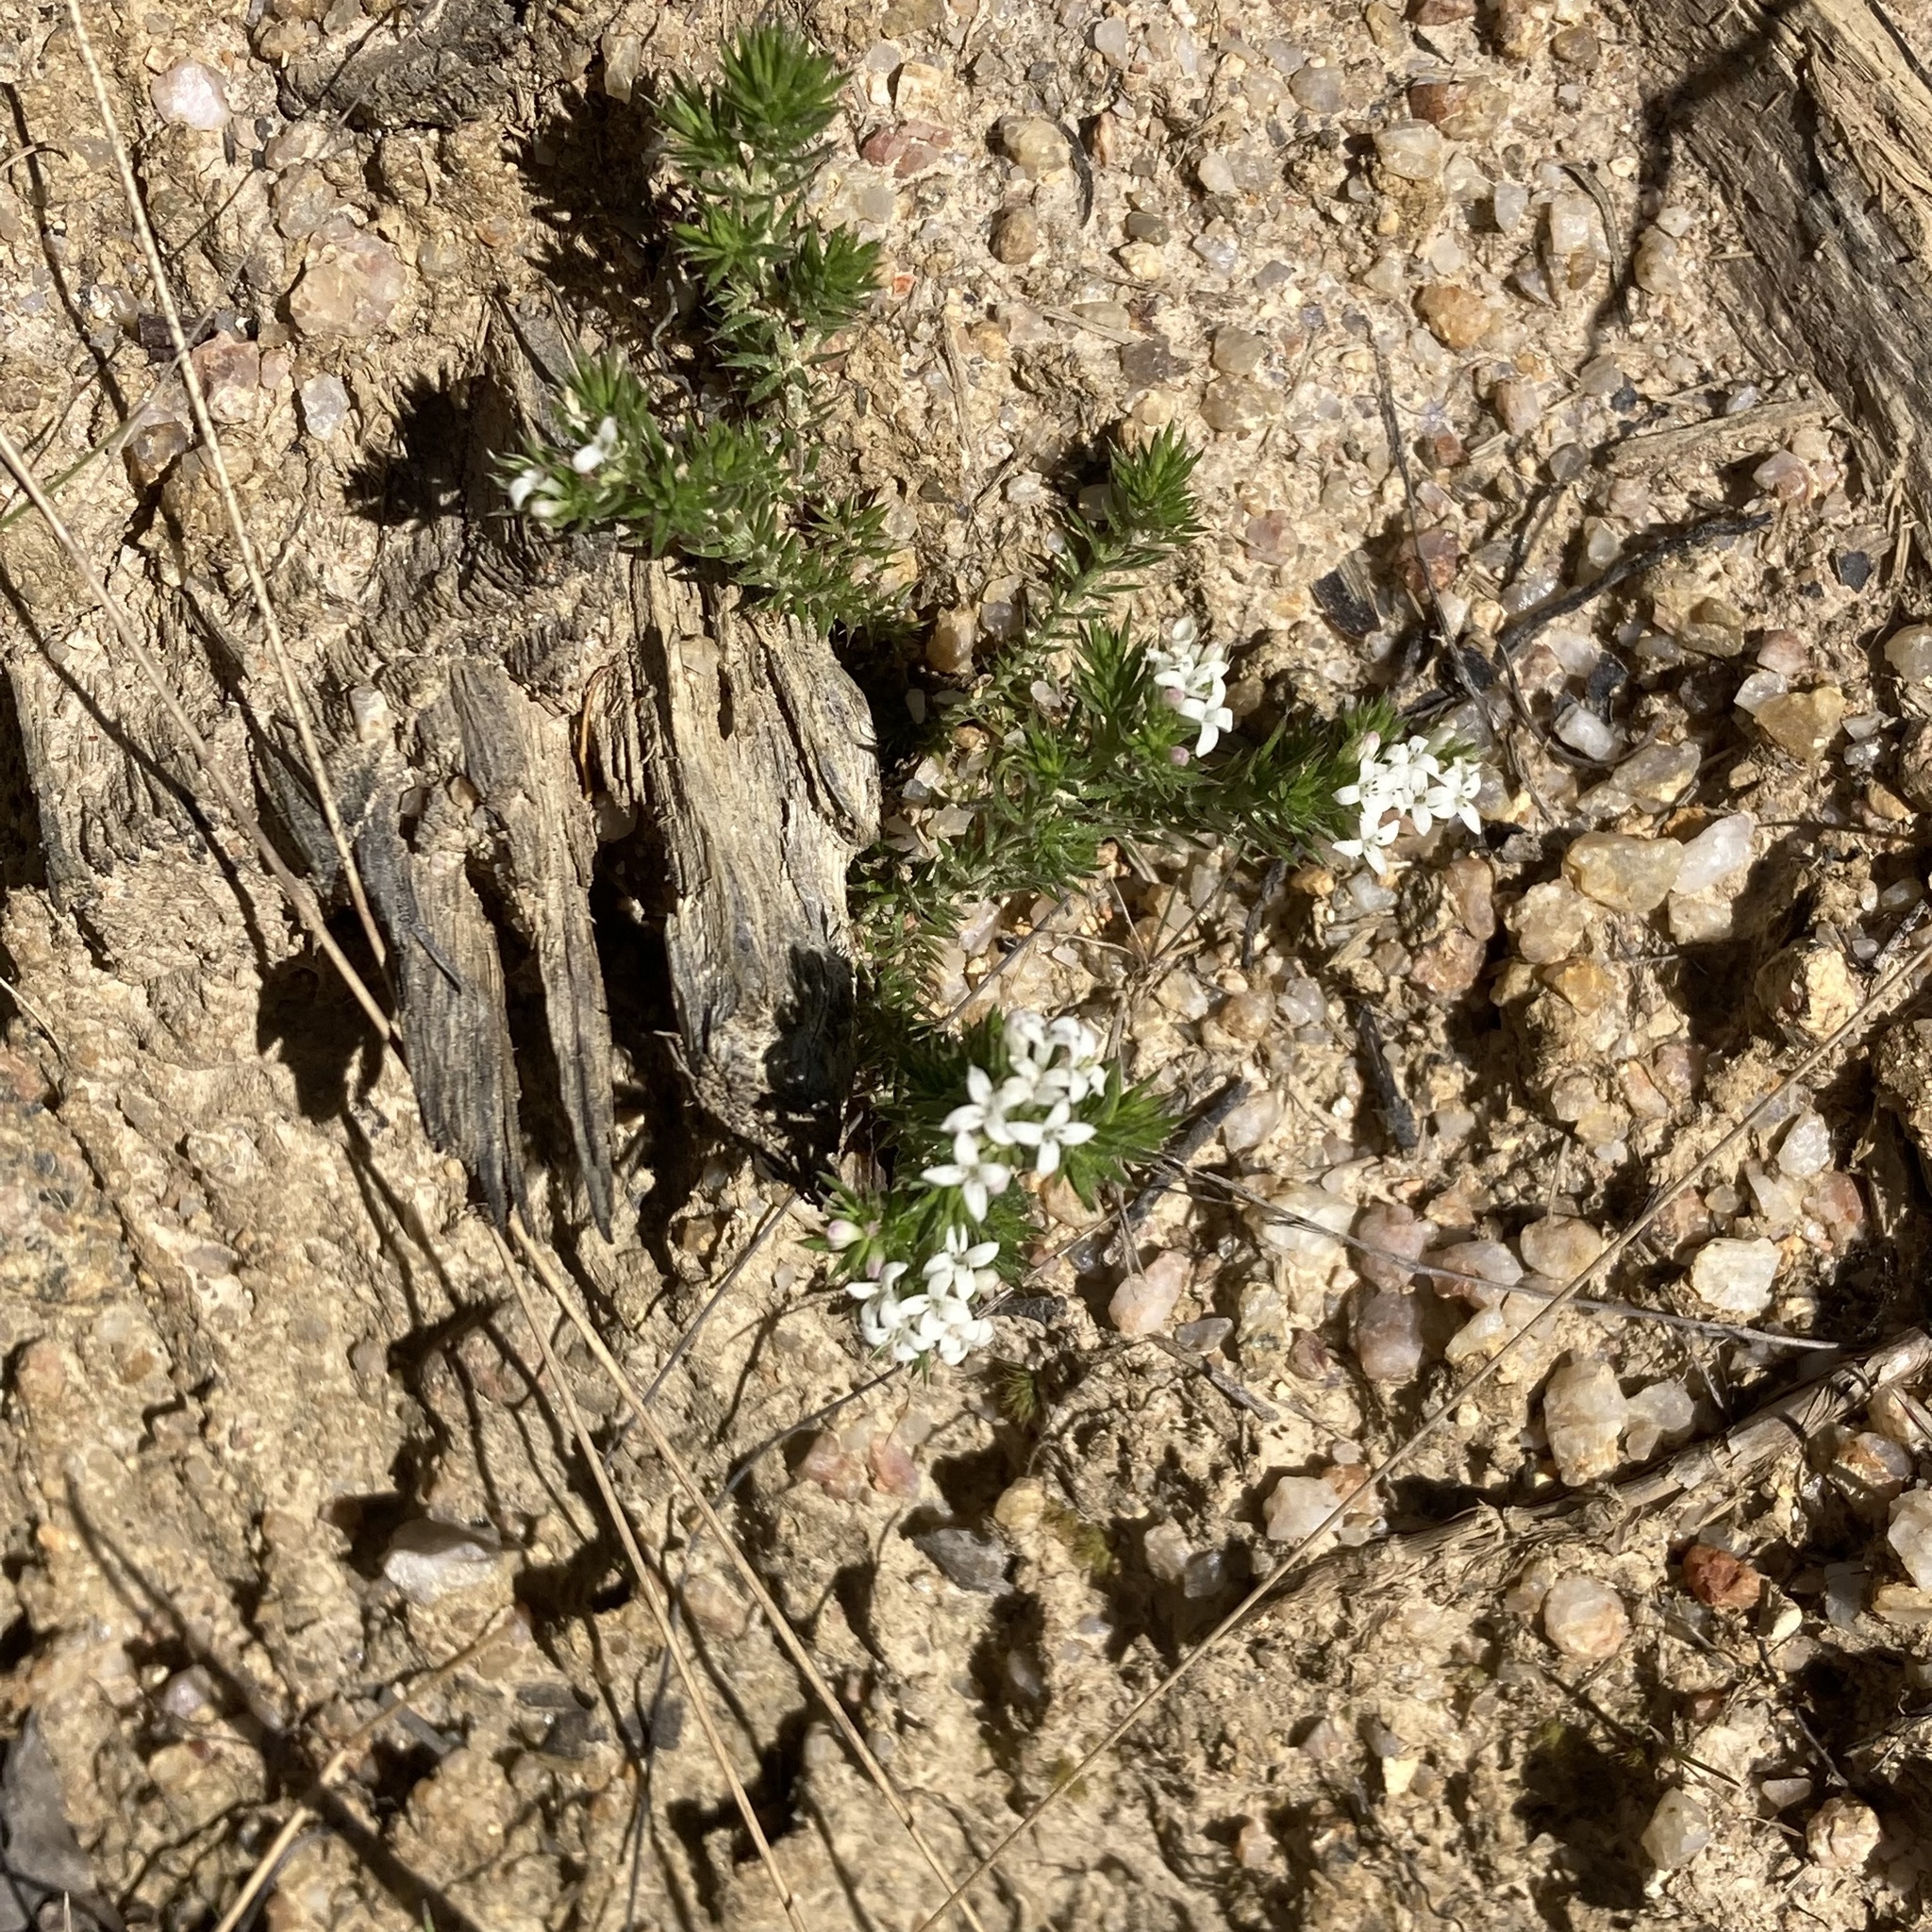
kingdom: Plantae
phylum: Tracheophyta
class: Magnoliopsida
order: Gentianales
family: Rubiaceae
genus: Asperula
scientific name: Asperula scoparia
